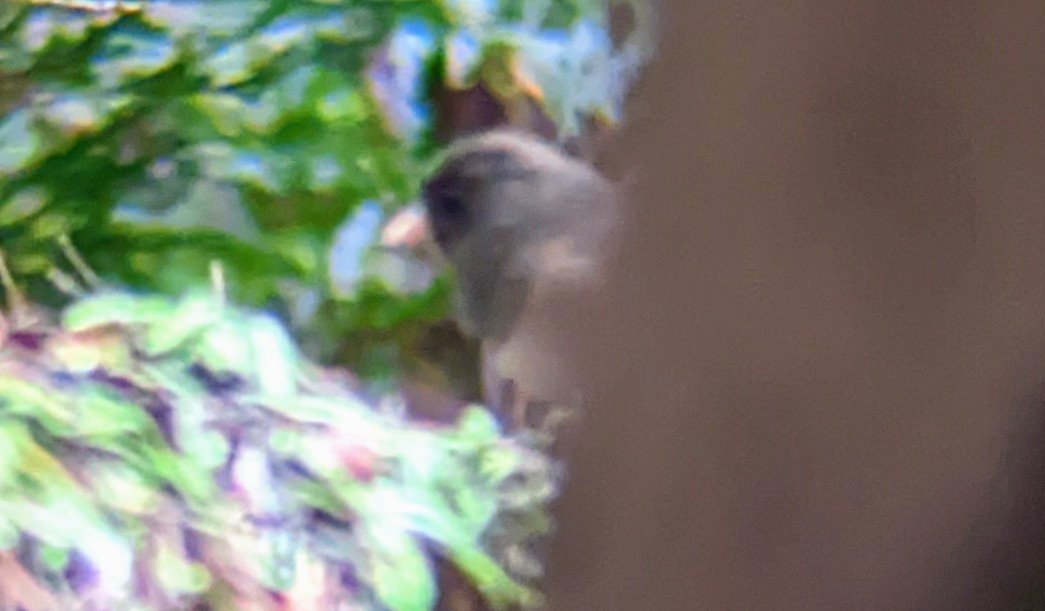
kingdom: Animalia
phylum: Chordata
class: Aves
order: Passeriformes
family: Passerellidae
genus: Junco
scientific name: Junco hyemalis
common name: Dark-eyed junco
